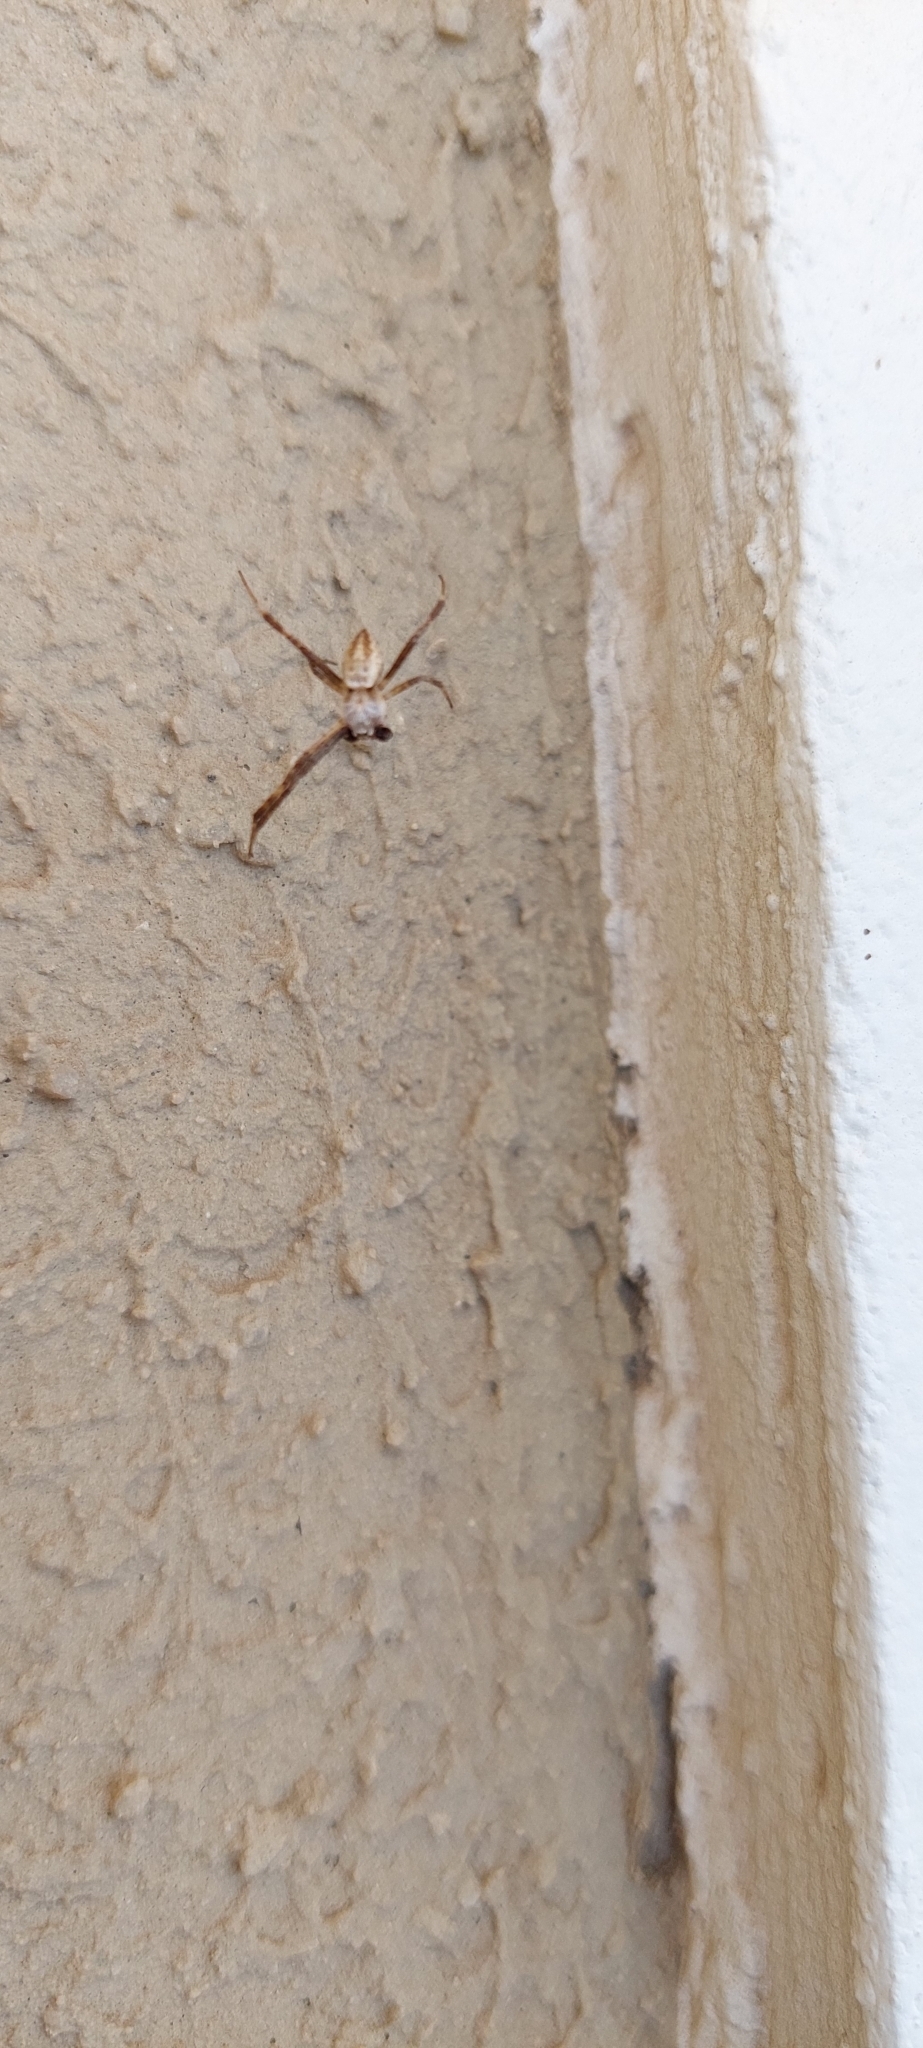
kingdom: Animalia
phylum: Arthropoda
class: Arachnida
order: Araneae
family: Araneidae
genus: Argiope
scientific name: Argiope argentata
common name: Orb weavers
